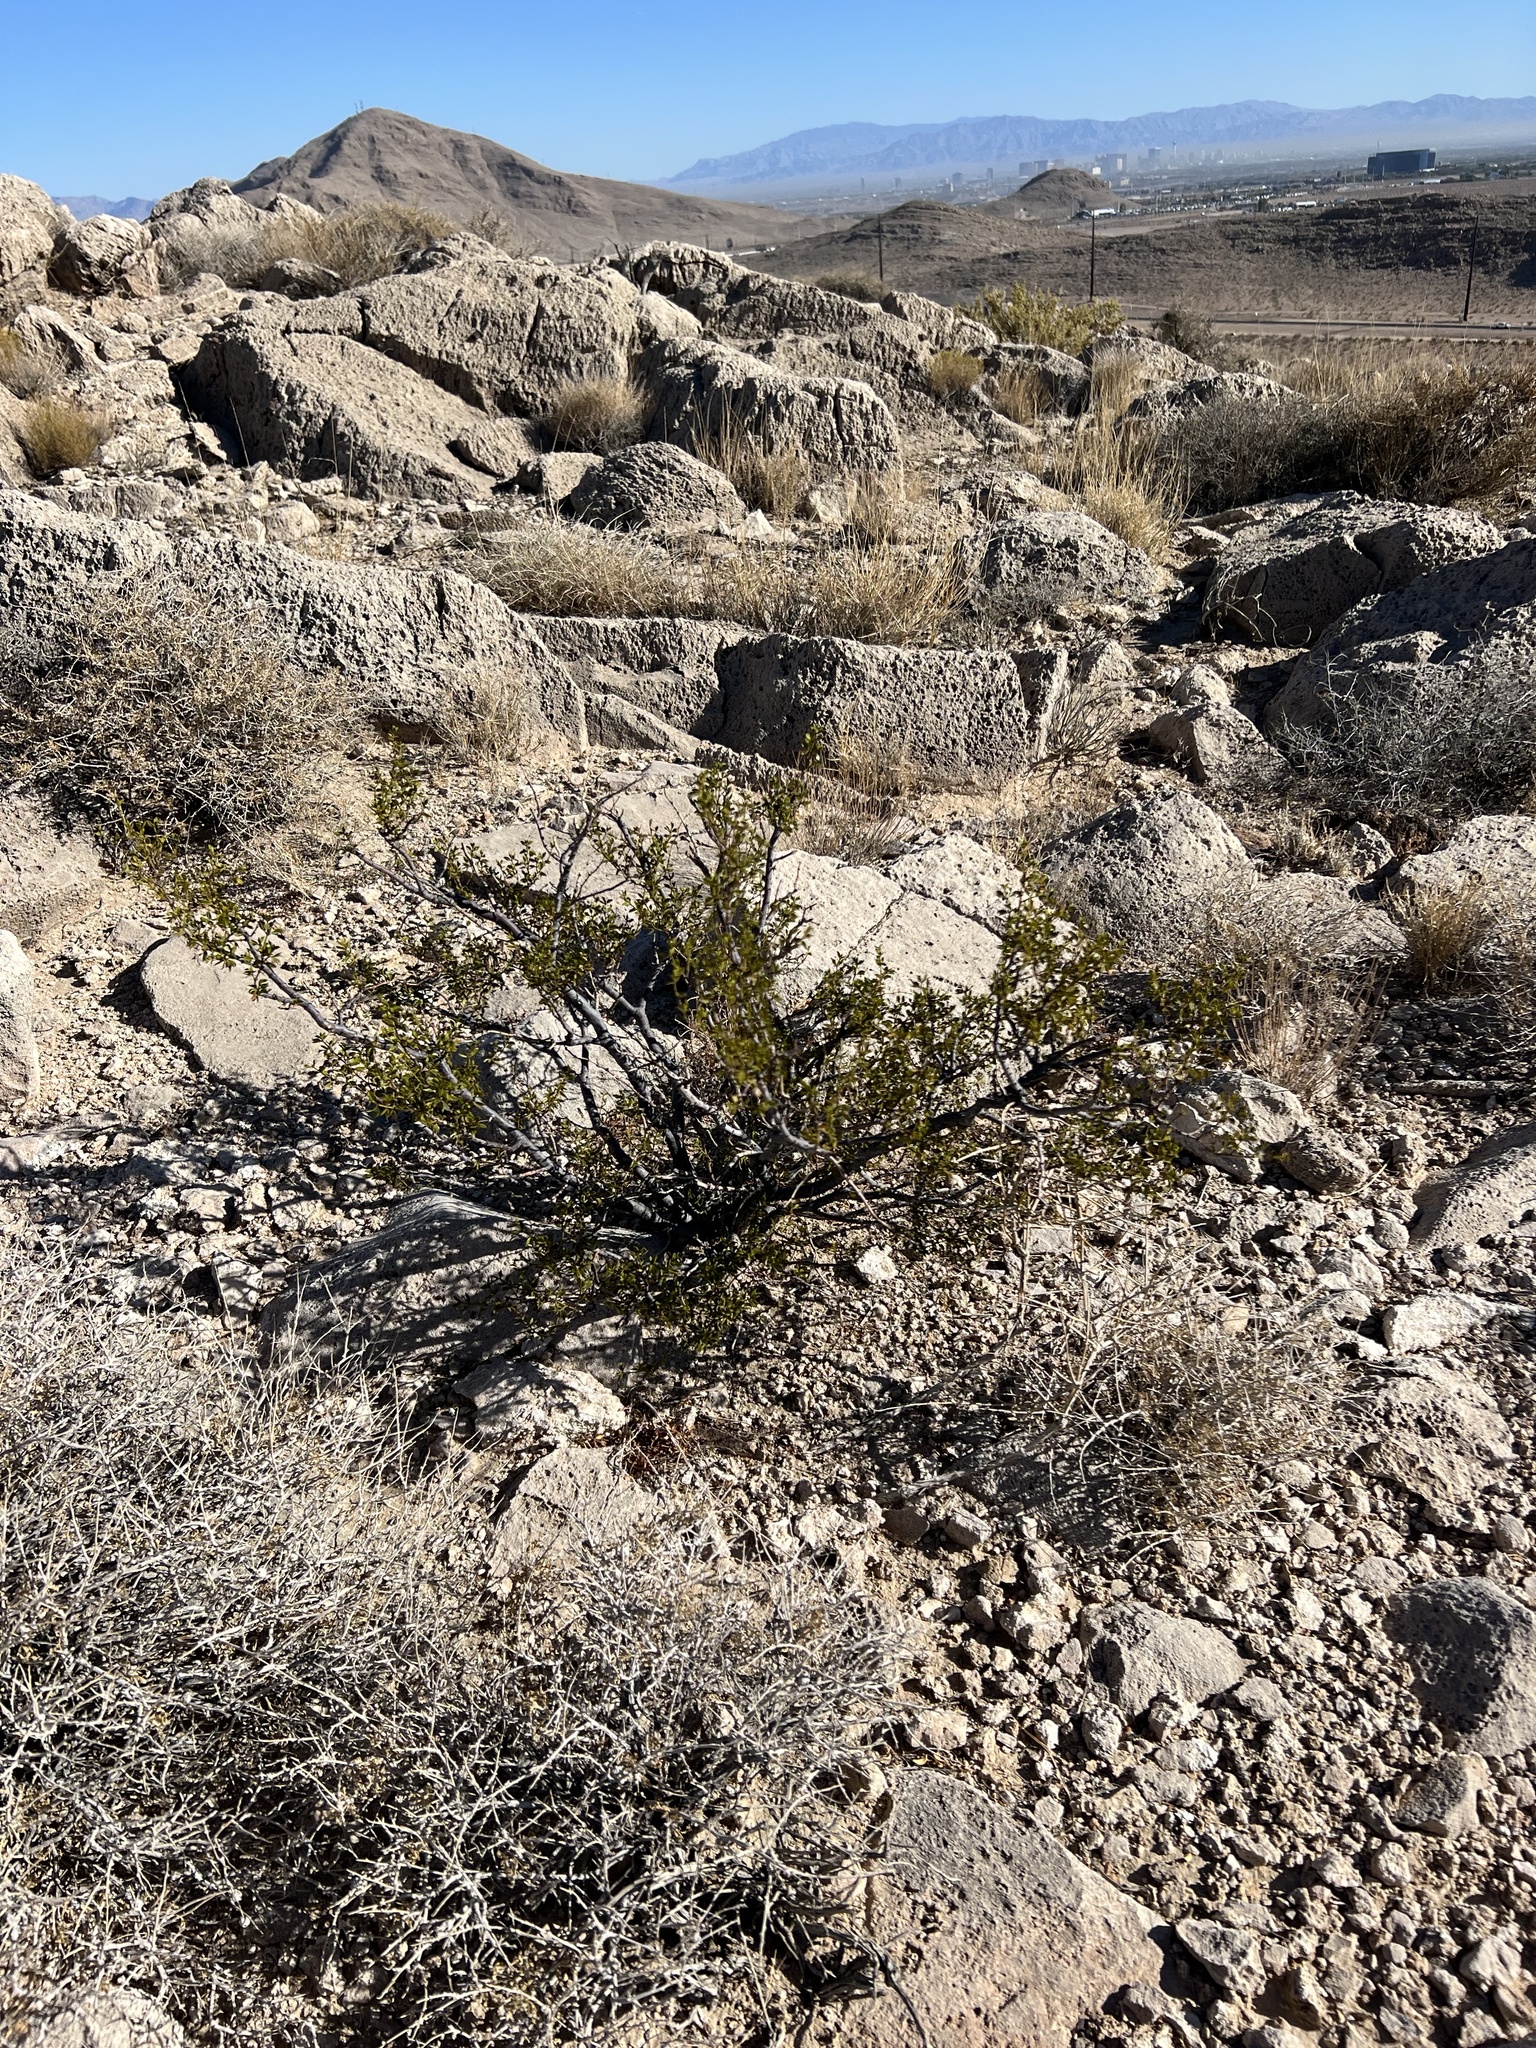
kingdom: Plantae
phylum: Tracheophyta
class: Magnoliopsida
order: Zygophyllales
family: Zygophyllaceae
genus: Larrea
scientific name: Larrea tridentata
